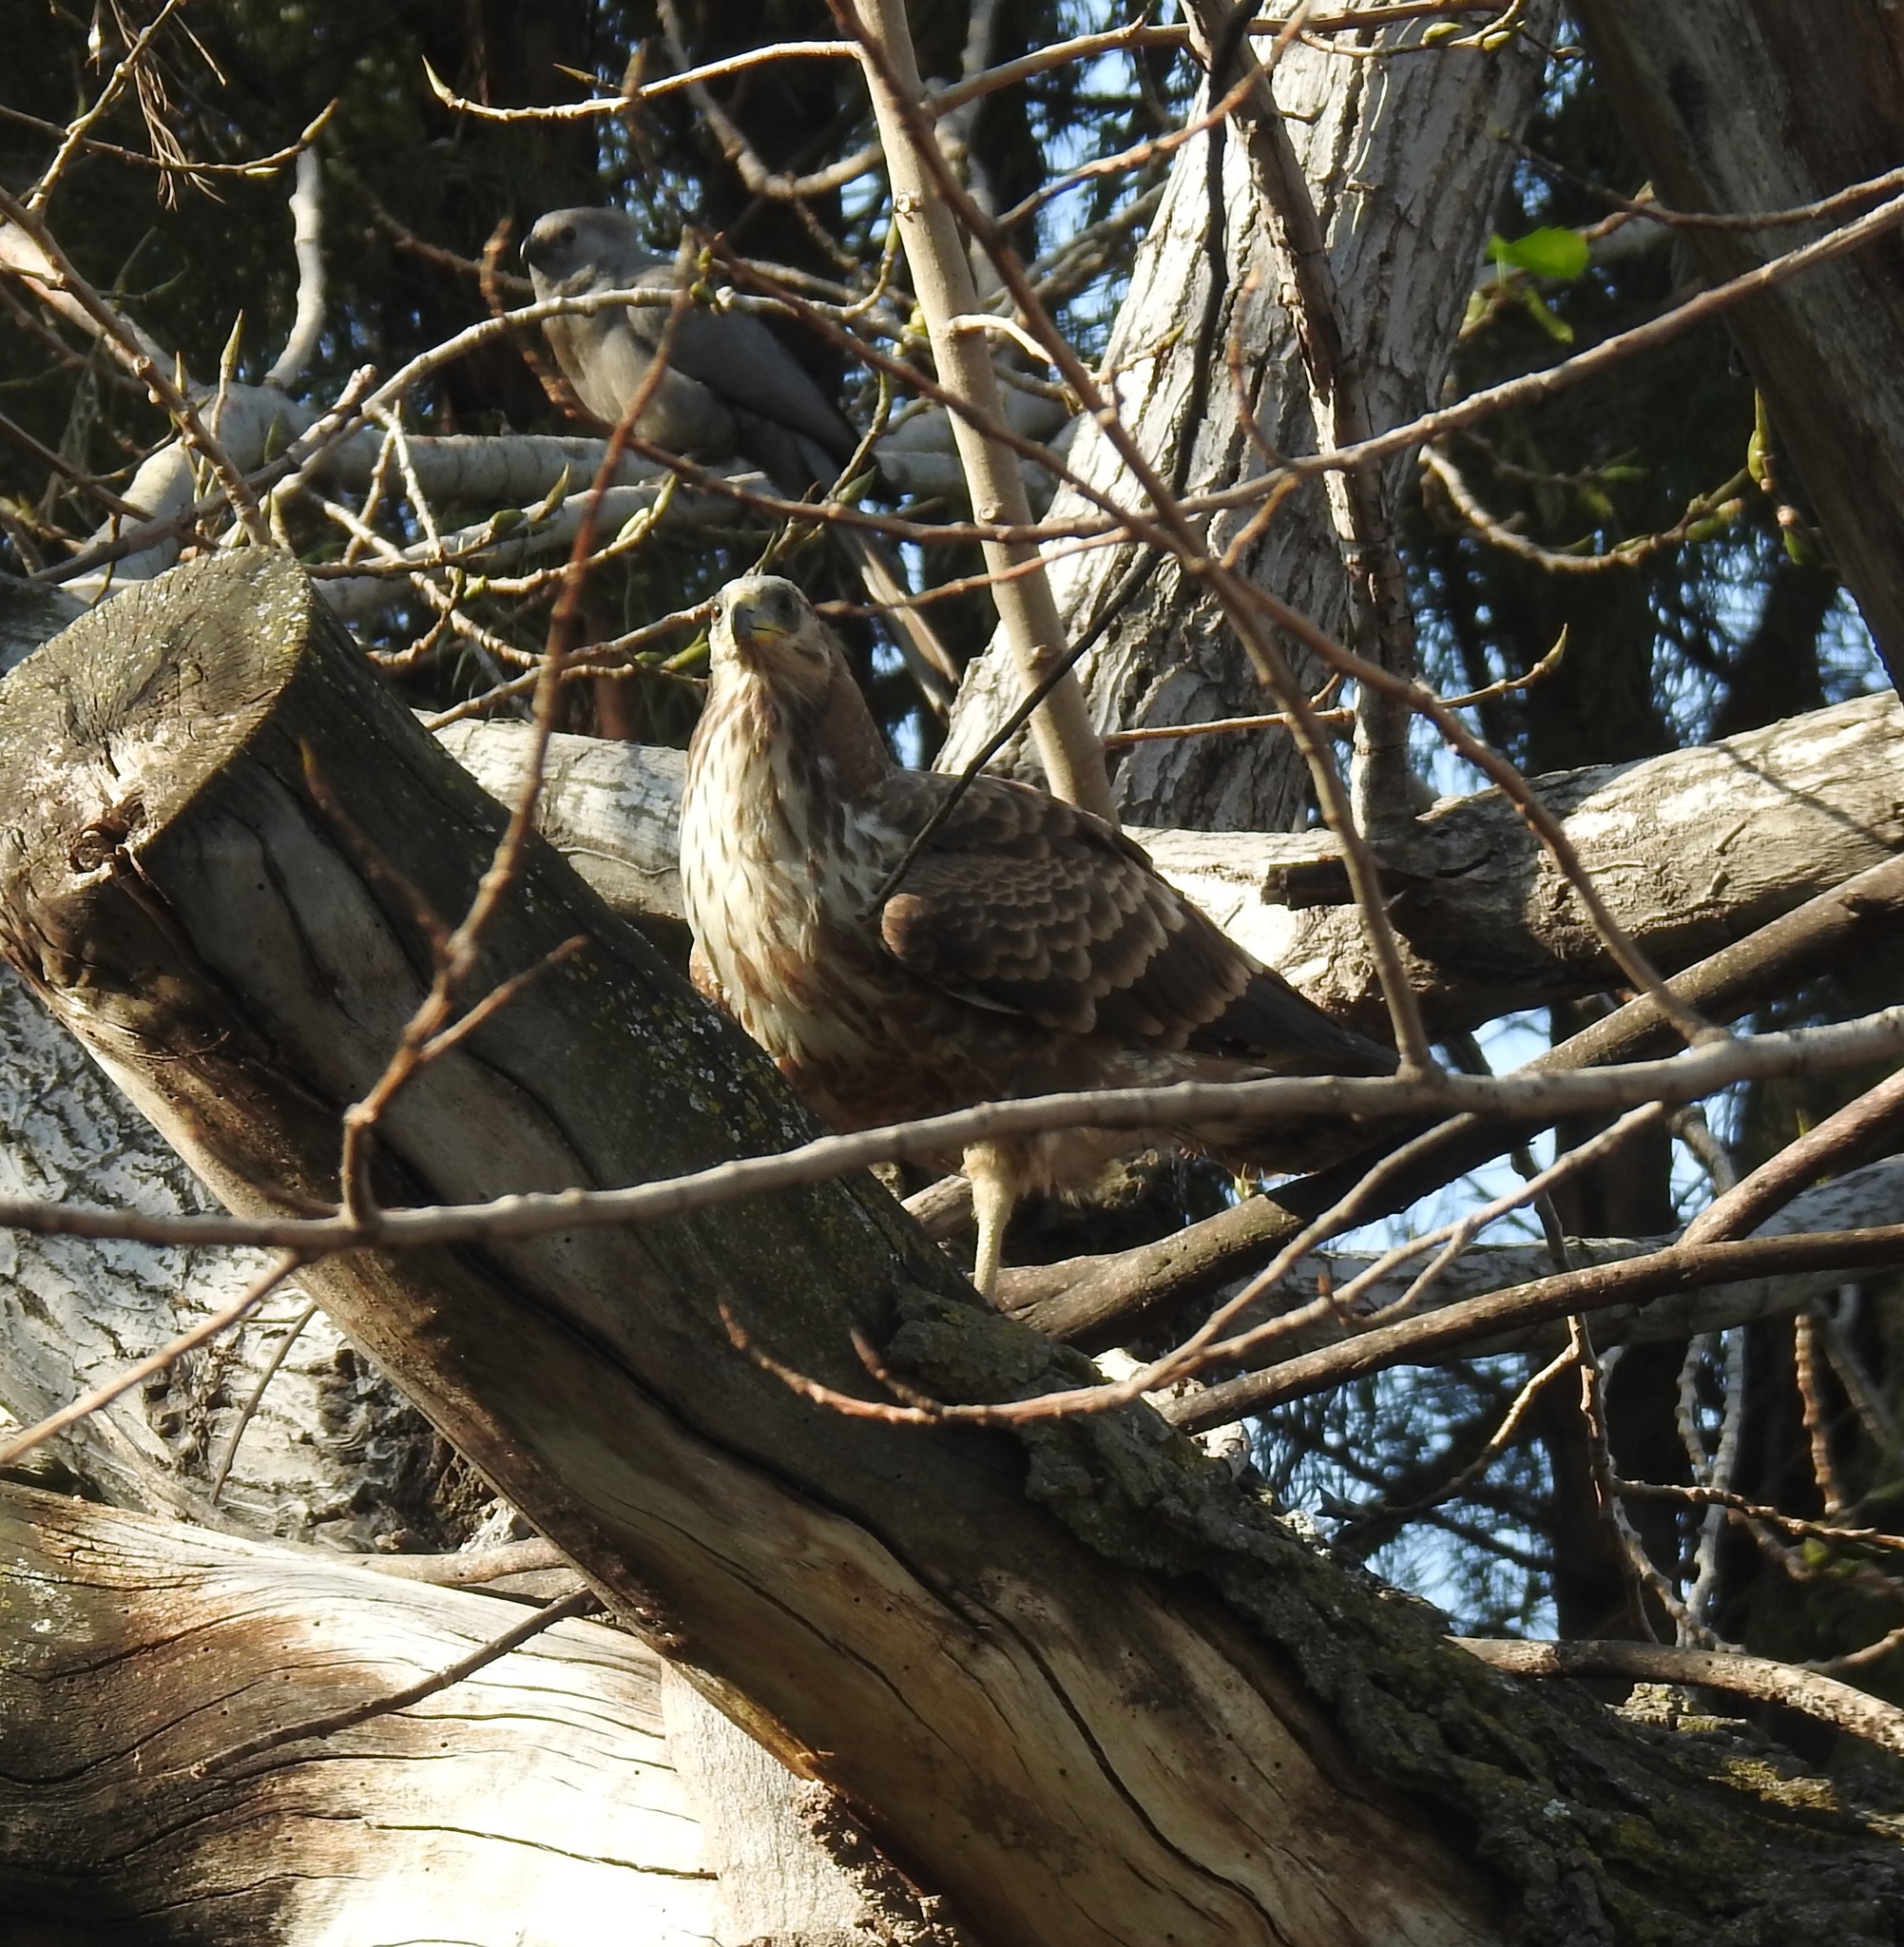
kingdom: Animalia
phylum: Chordata
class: Aves
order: Accipitriformes
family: Accipitridae
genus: Polyboroides
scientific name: Polyboroides typus
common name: African harrier-hawk
